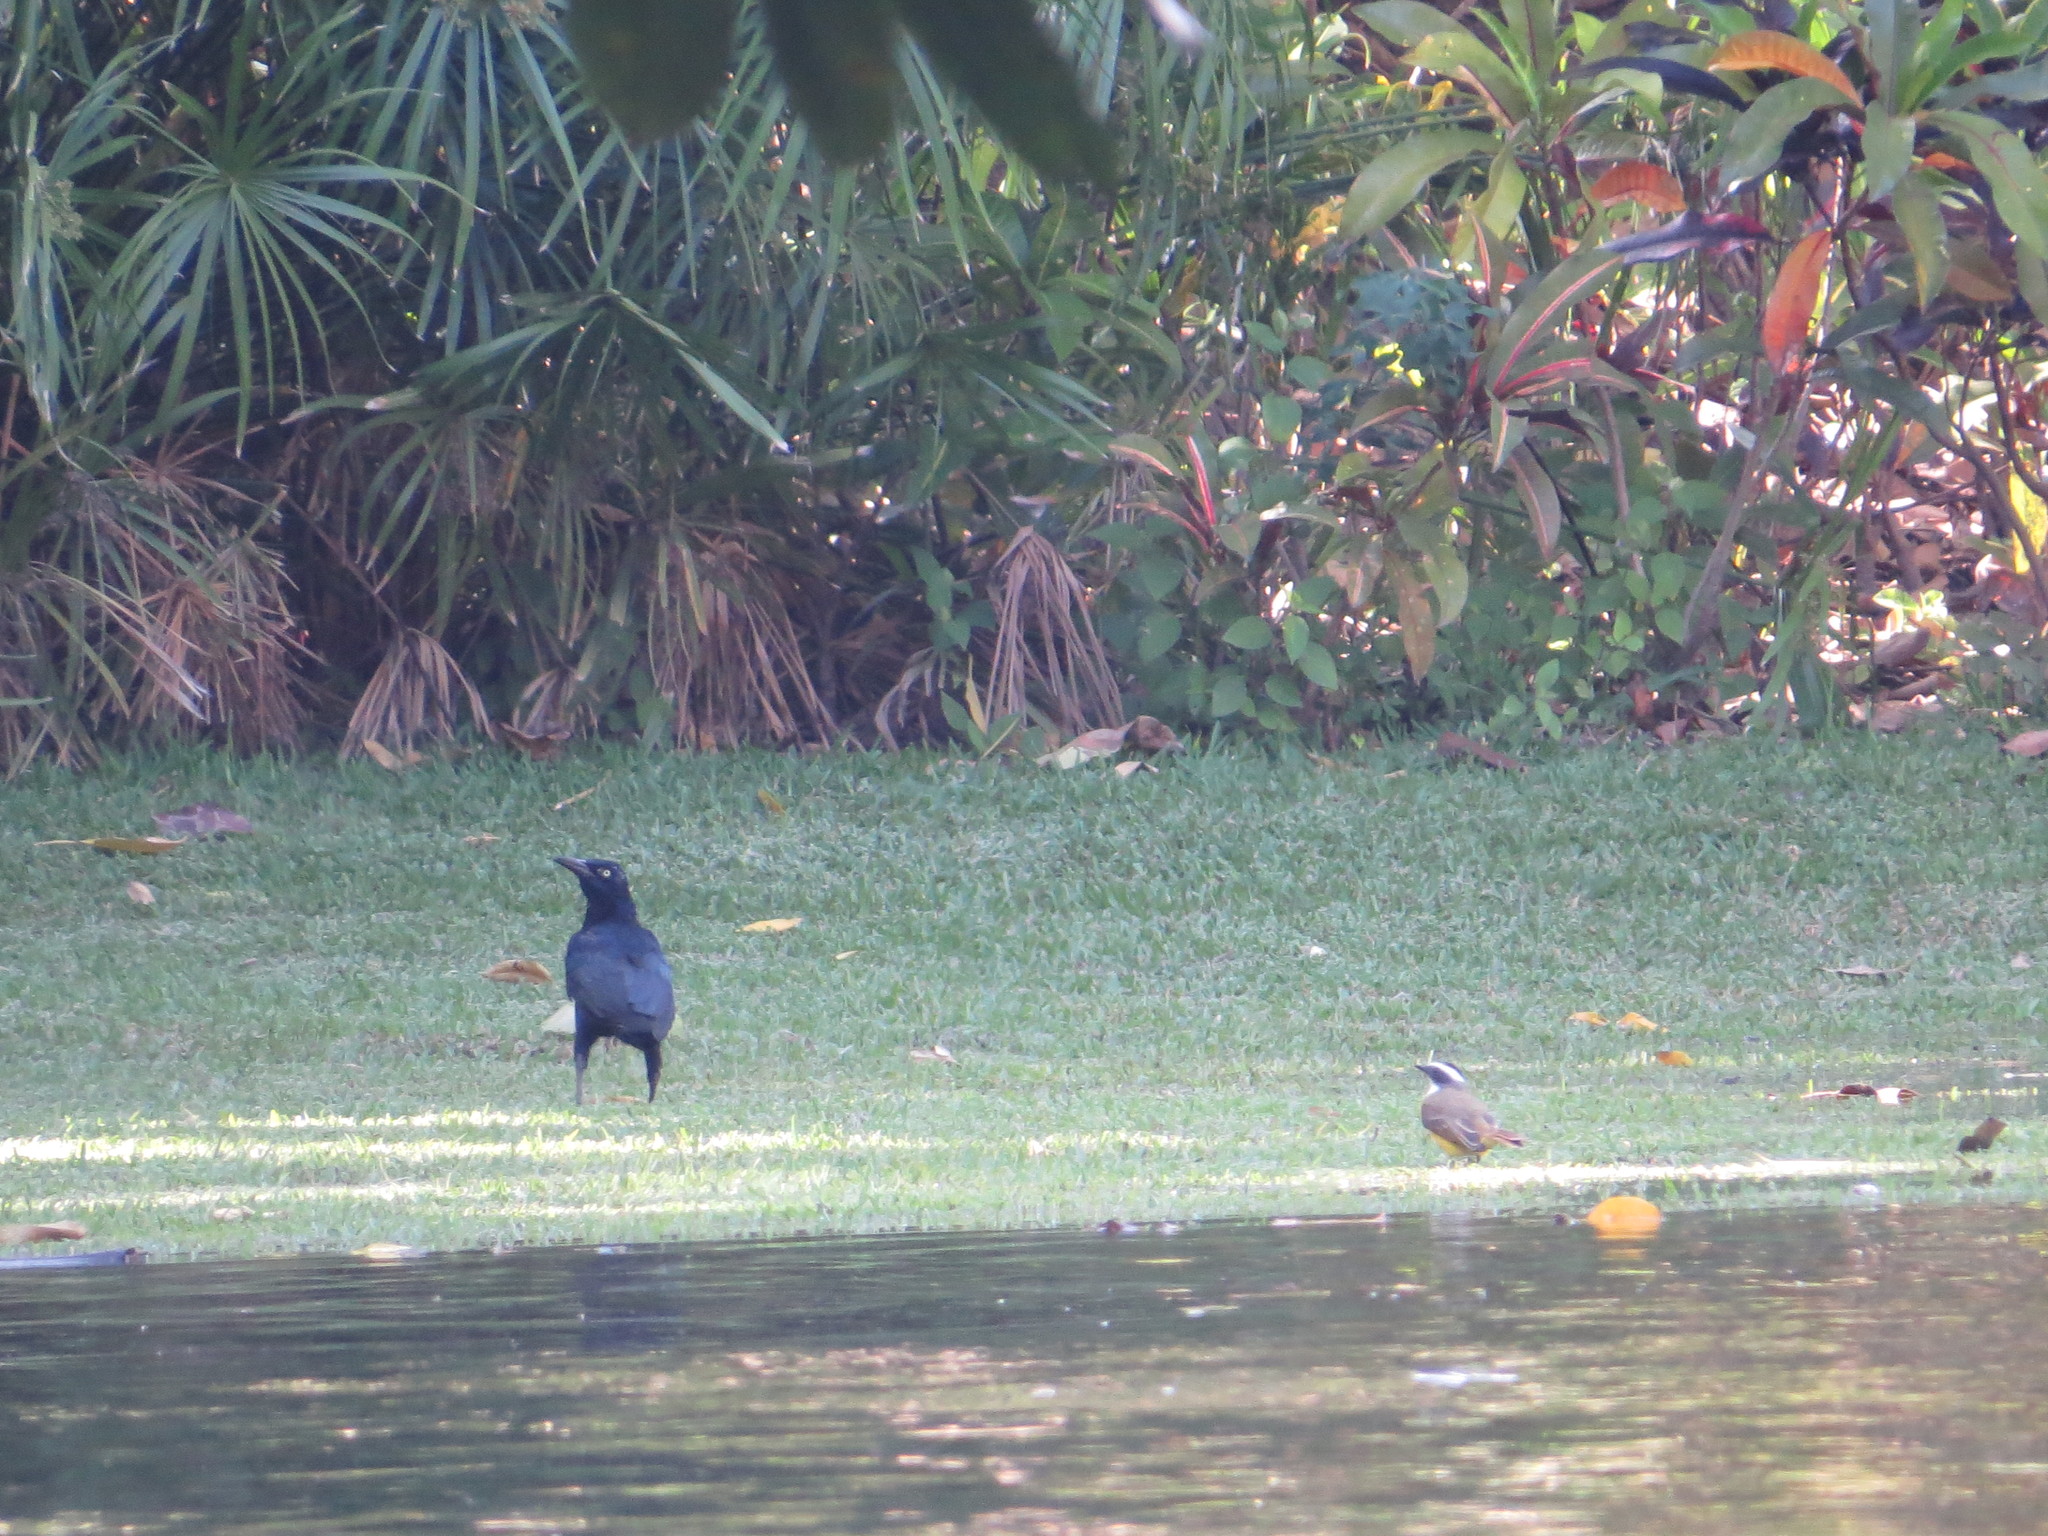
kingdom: Animalia
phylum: Chordata
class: Aves
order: Passeriformes
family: Icteridae
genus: Quiscalus
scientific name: Quiscalus mexicanus
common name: Great-tailed grackle
